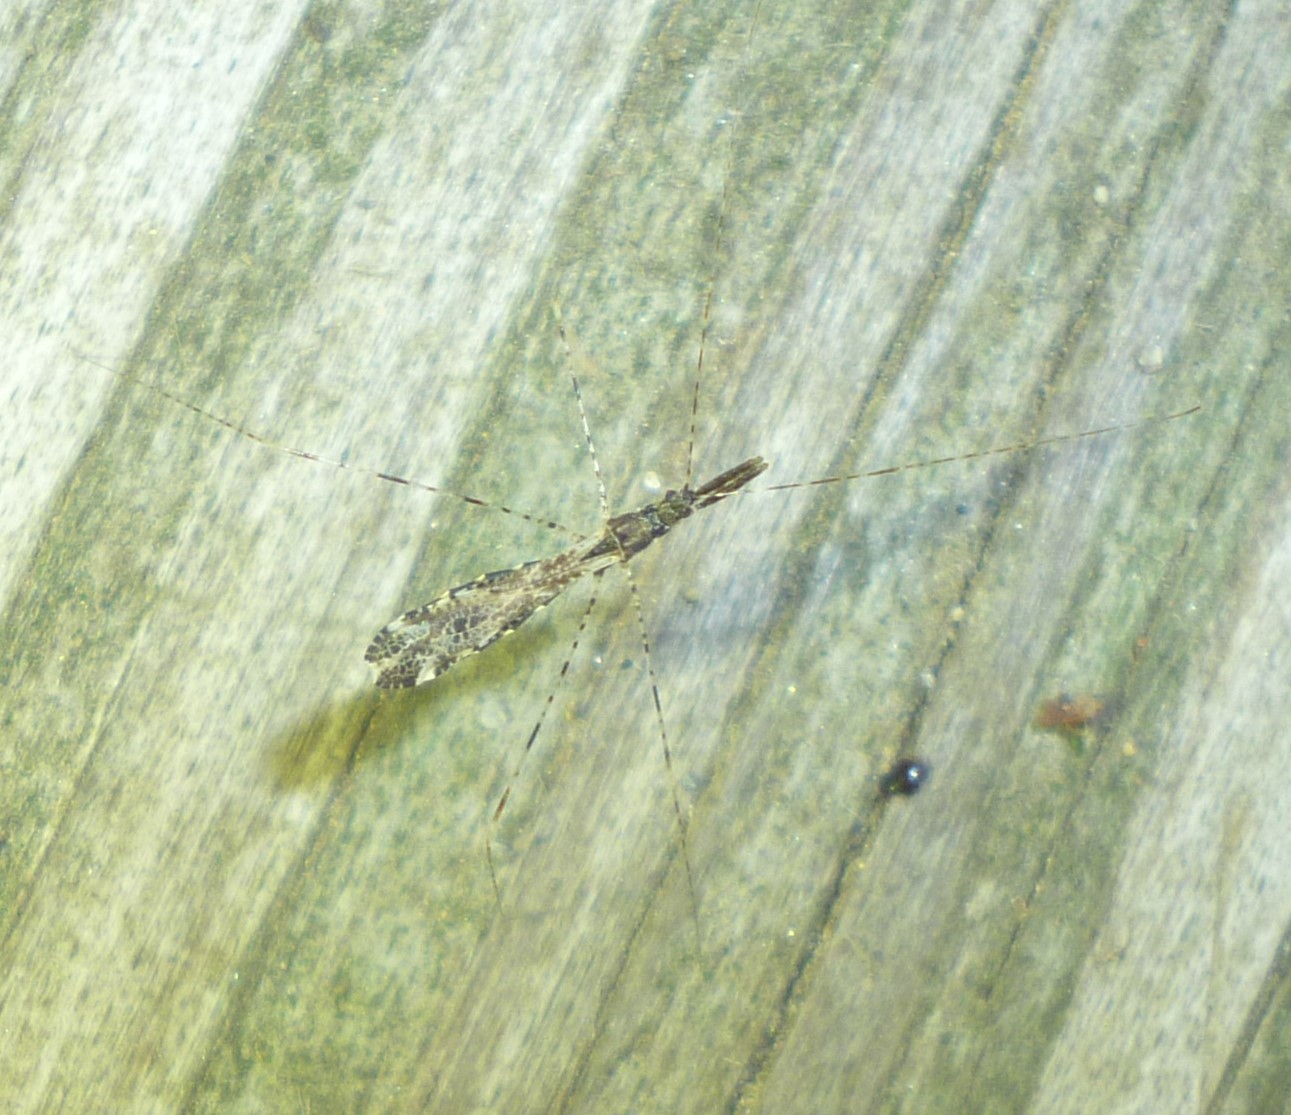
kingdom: Animalia
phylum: Arthropoda
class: Insecta
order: Hemiptera
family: Reduviidae
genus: Empicoris
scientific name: Empicoris errabundus
